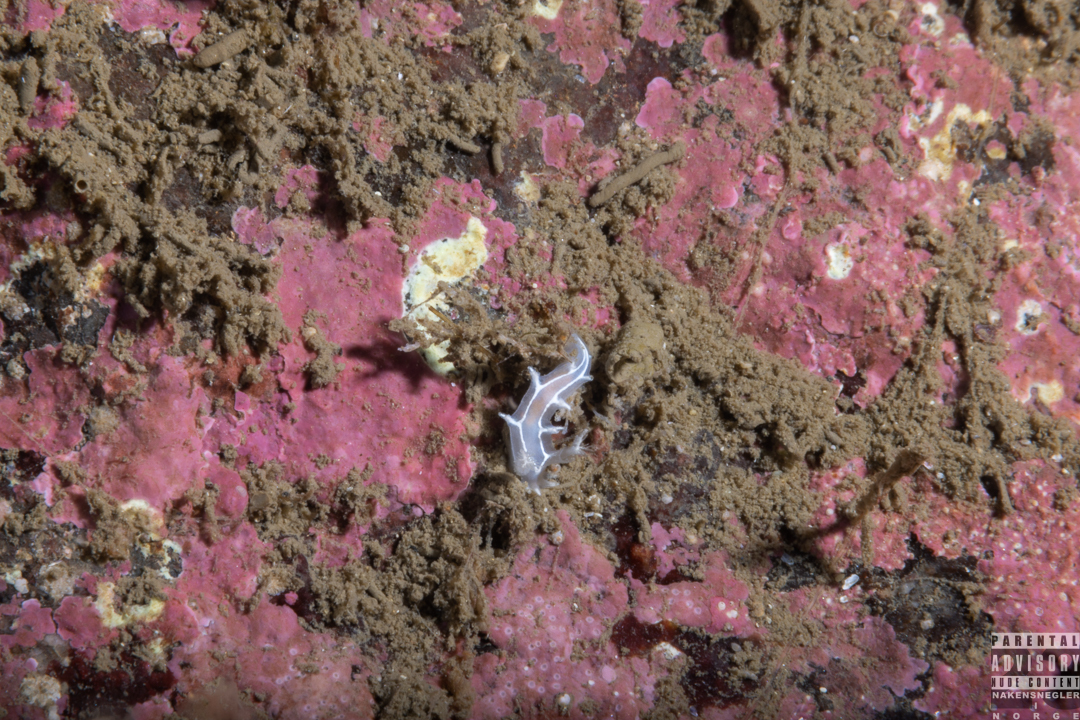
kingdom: Animalia
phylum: Mollusca
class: Gastropoda
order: Nudibranchia
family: Tritoniidae
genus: Duvaucelia
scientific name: Duvaucelia lineata
